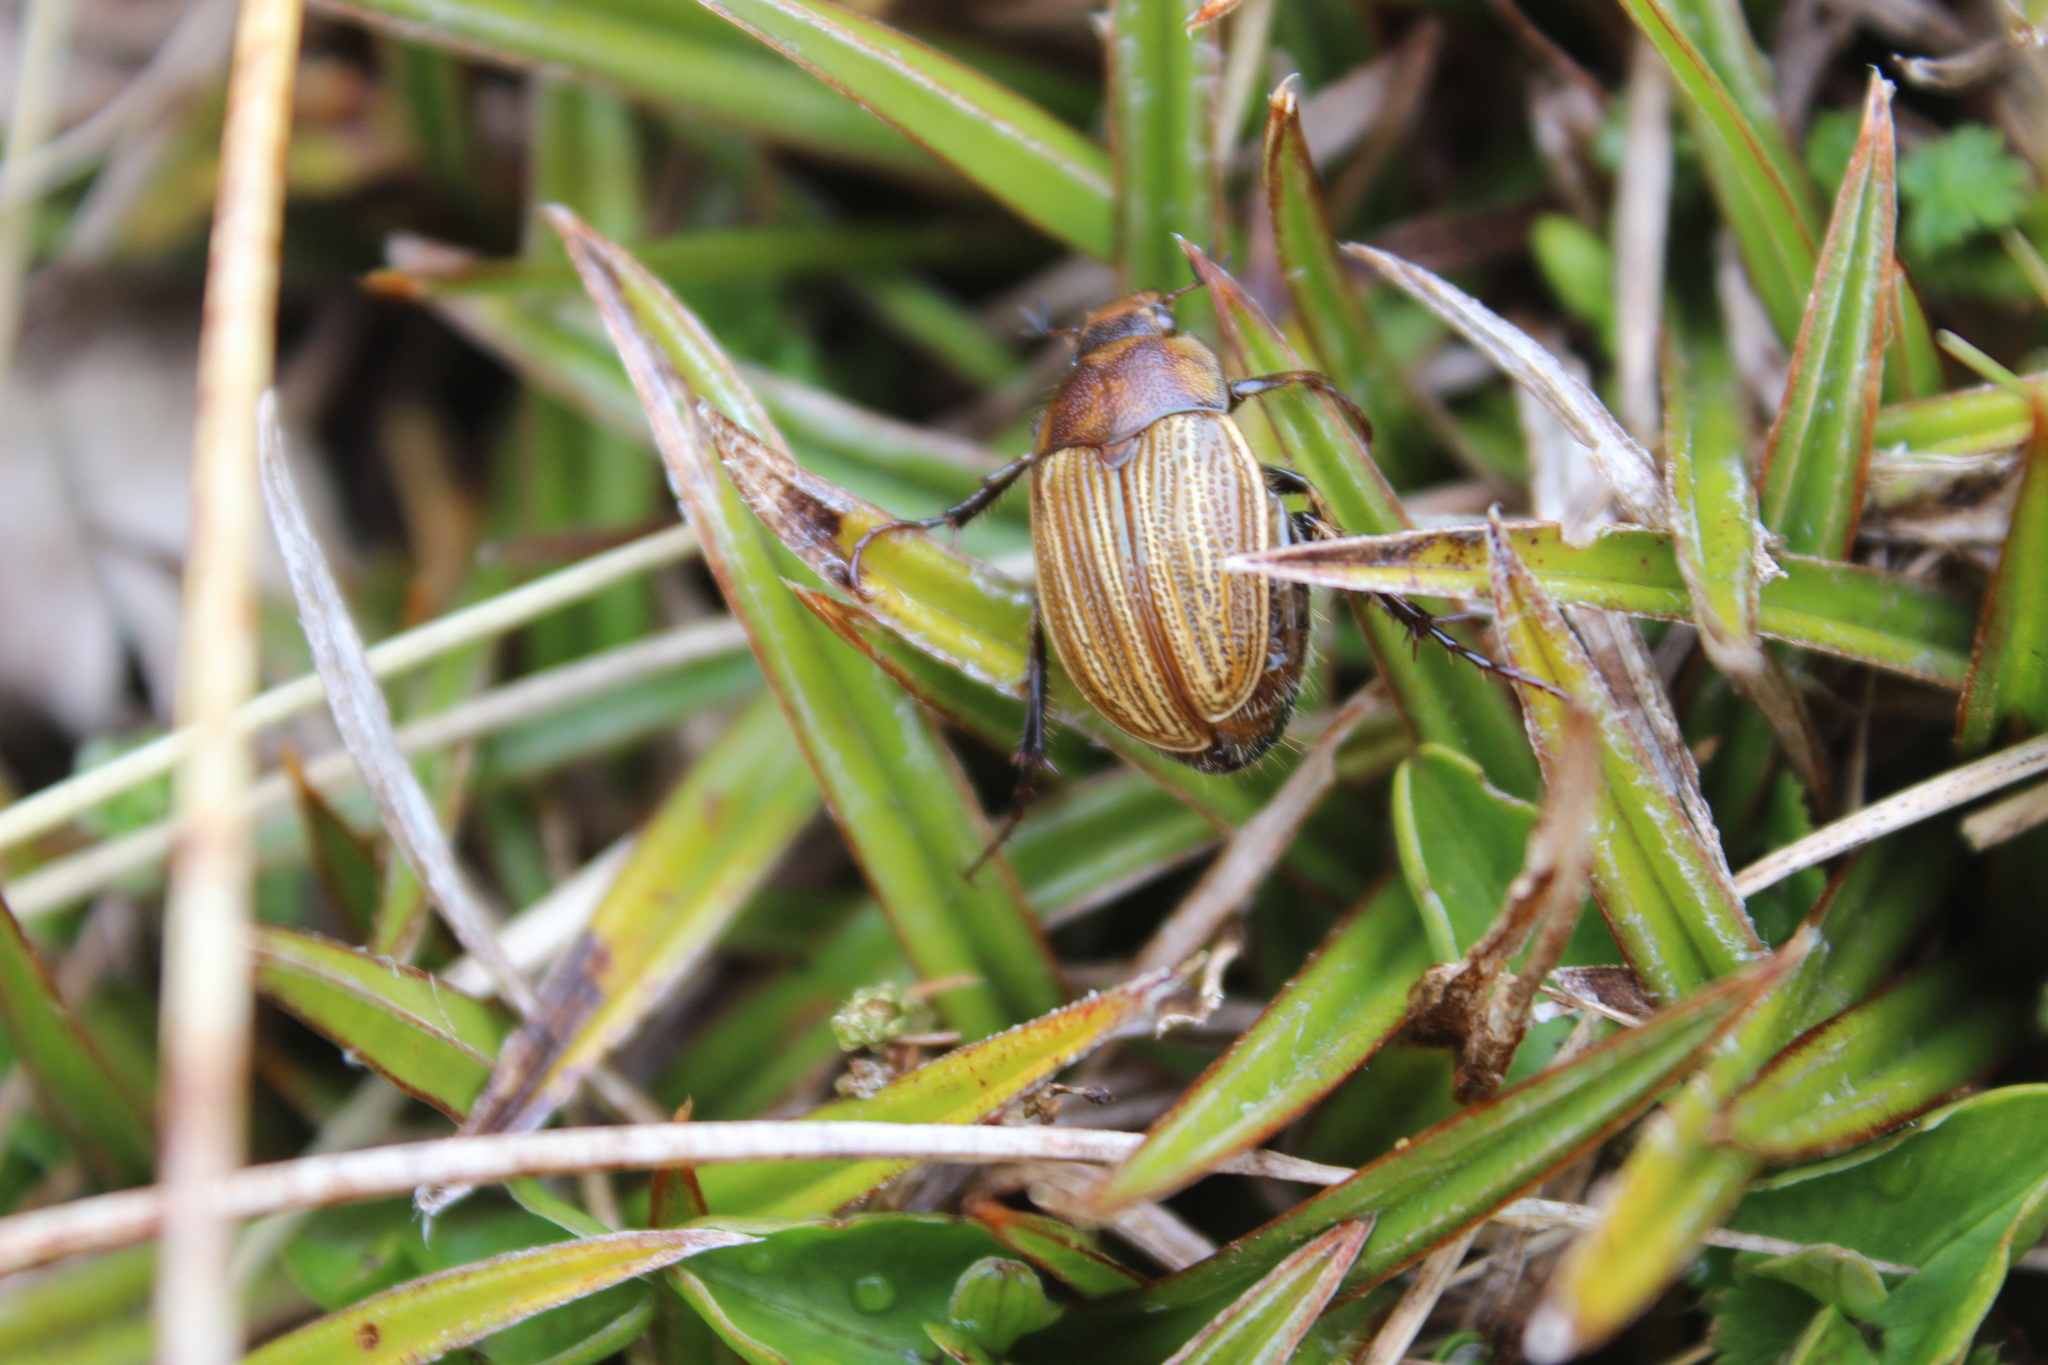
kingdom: Animalia
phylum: Arthropoda
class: Insecta
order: Coleoptera
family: Scarabaeidae
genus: Stethaspis
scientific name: Stethaspis simmondsi
